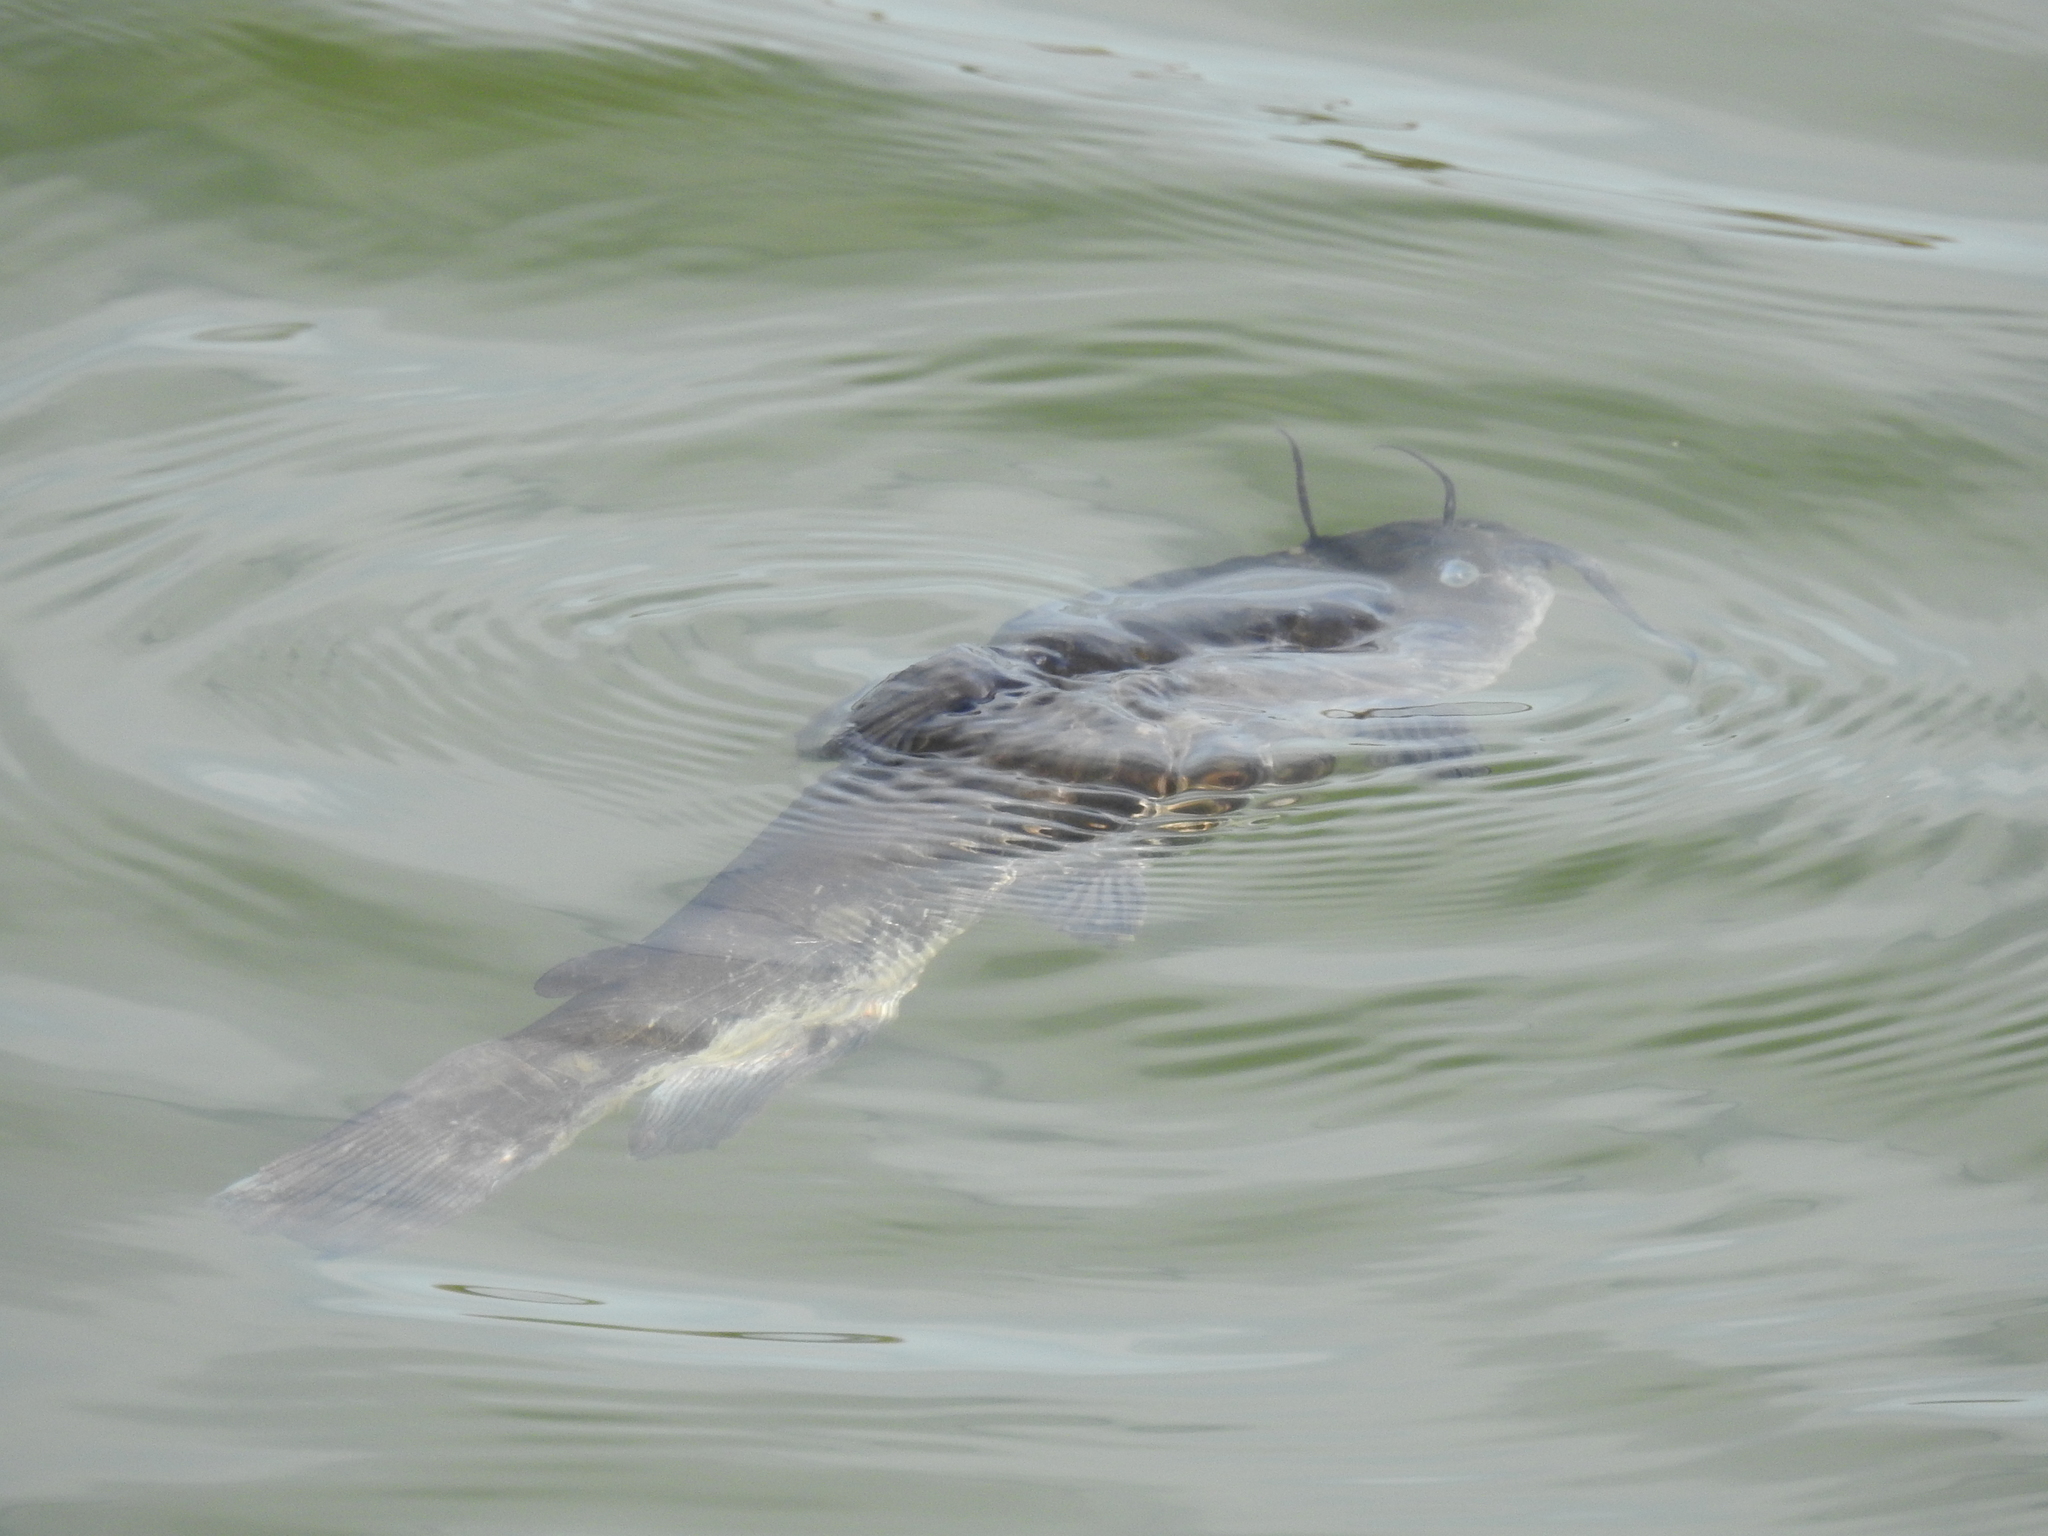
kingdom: Animalia
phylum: Chordata
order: Siluriformes
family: Ictaluridae
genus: Ameiurus
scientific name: Ameiurus nebulosus
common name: Brown bullhead
